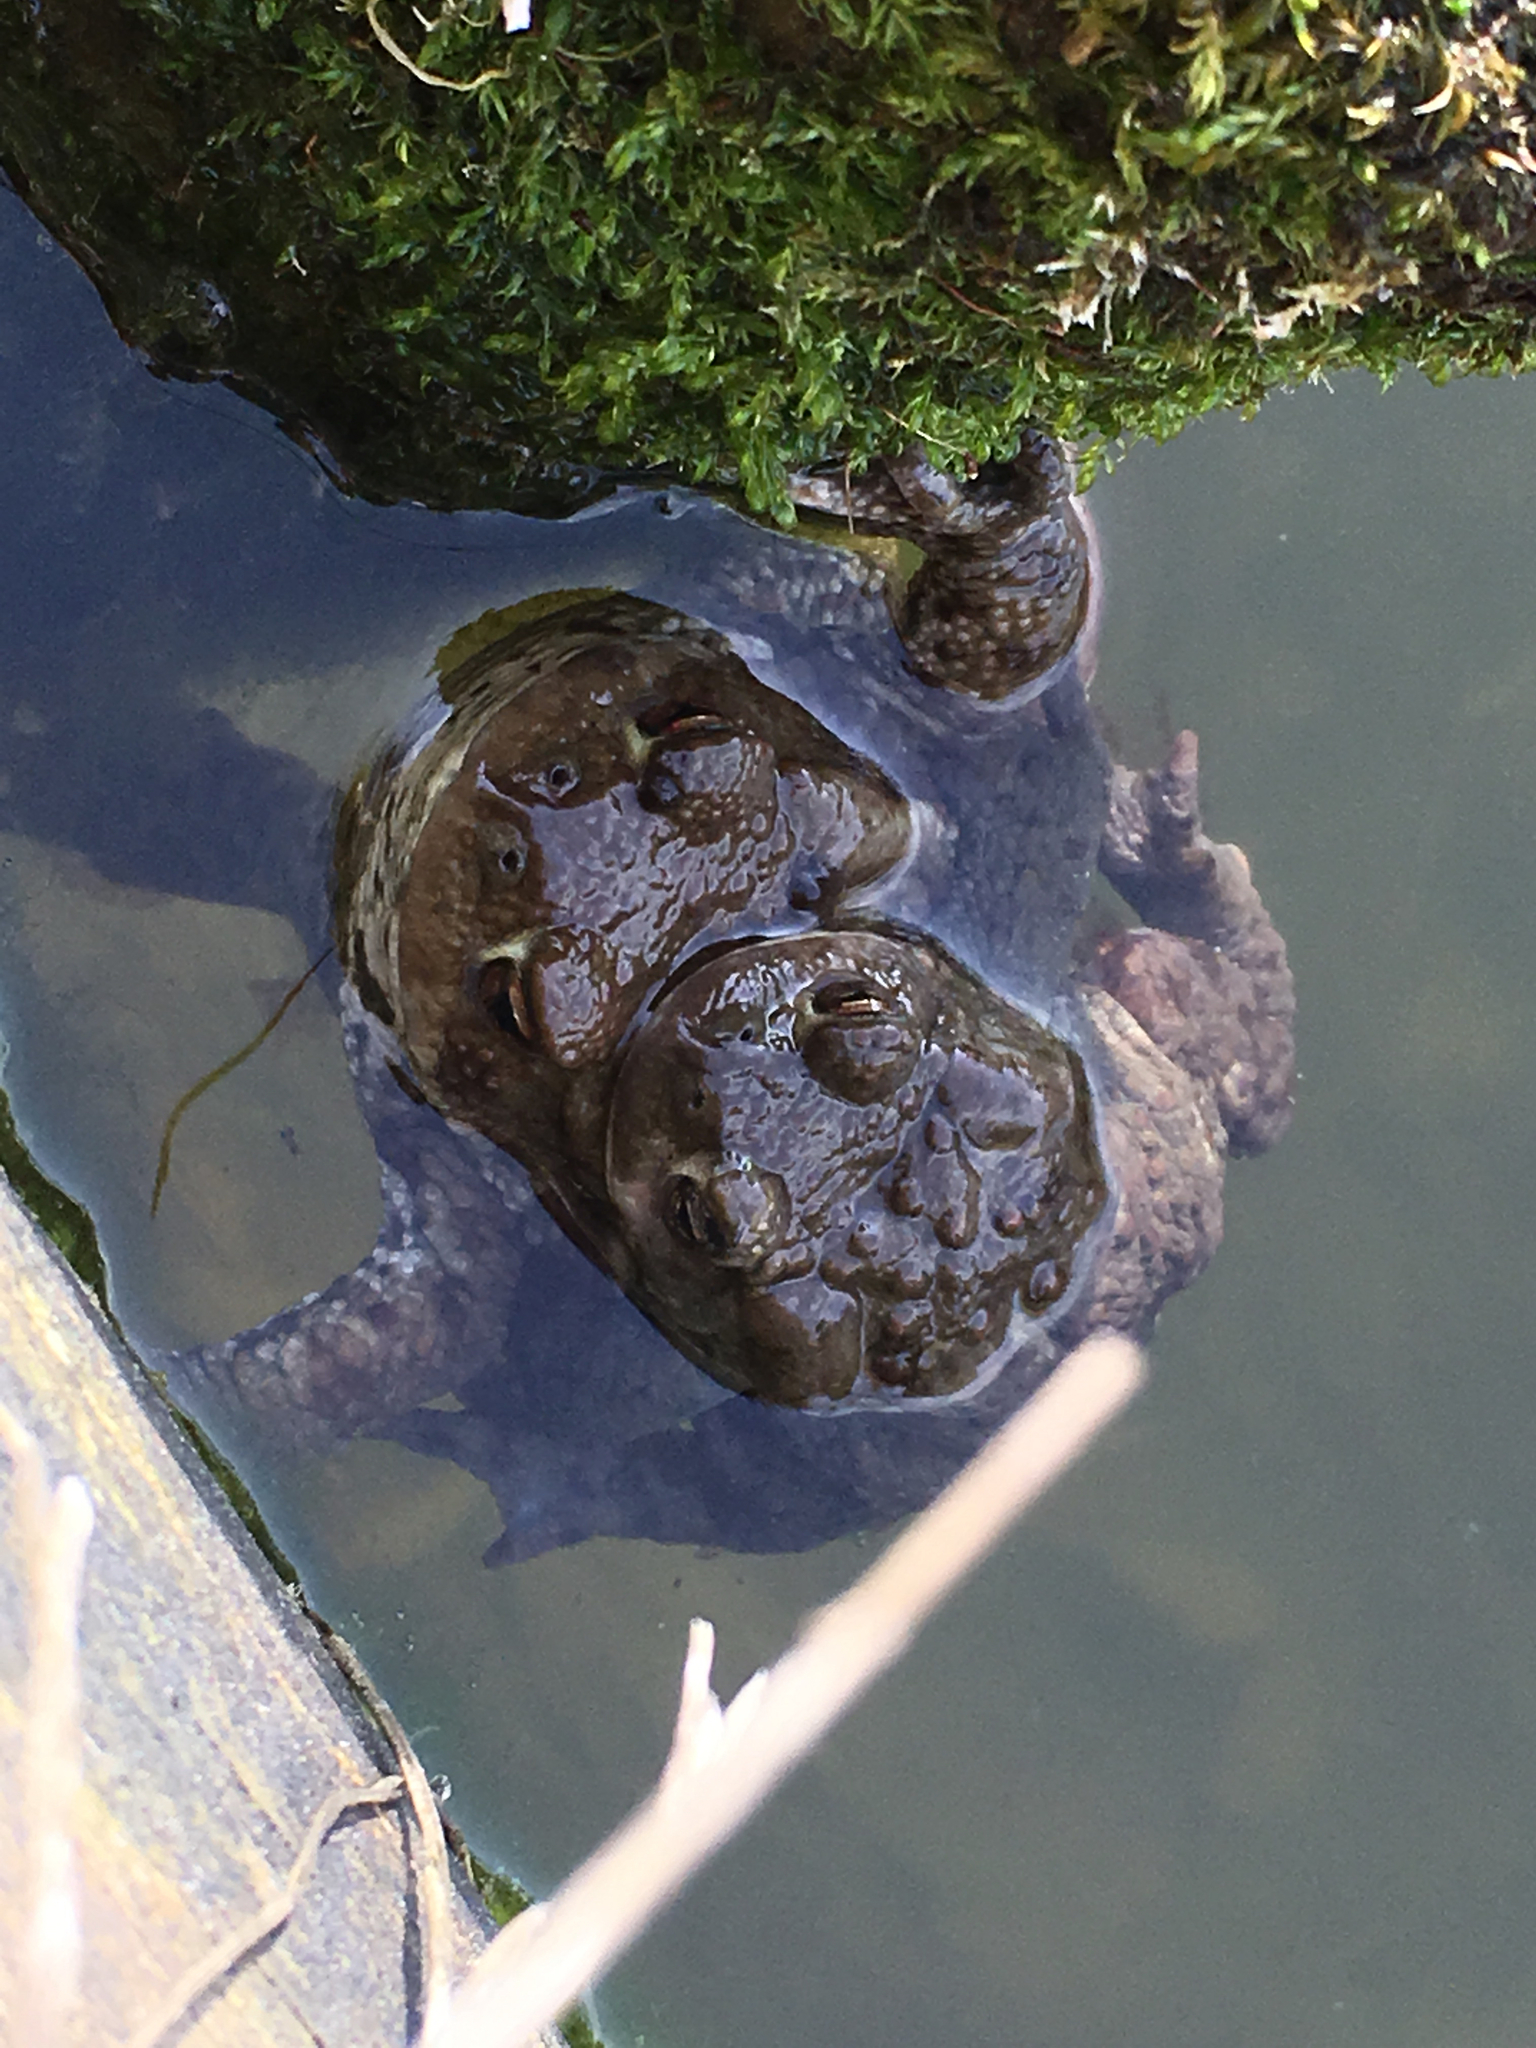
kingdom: Animalia
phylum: Chordata
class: Amphibia
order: Anura
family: Bufonidae
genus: Bufo
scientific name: Bufo bufo
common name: Common toad
